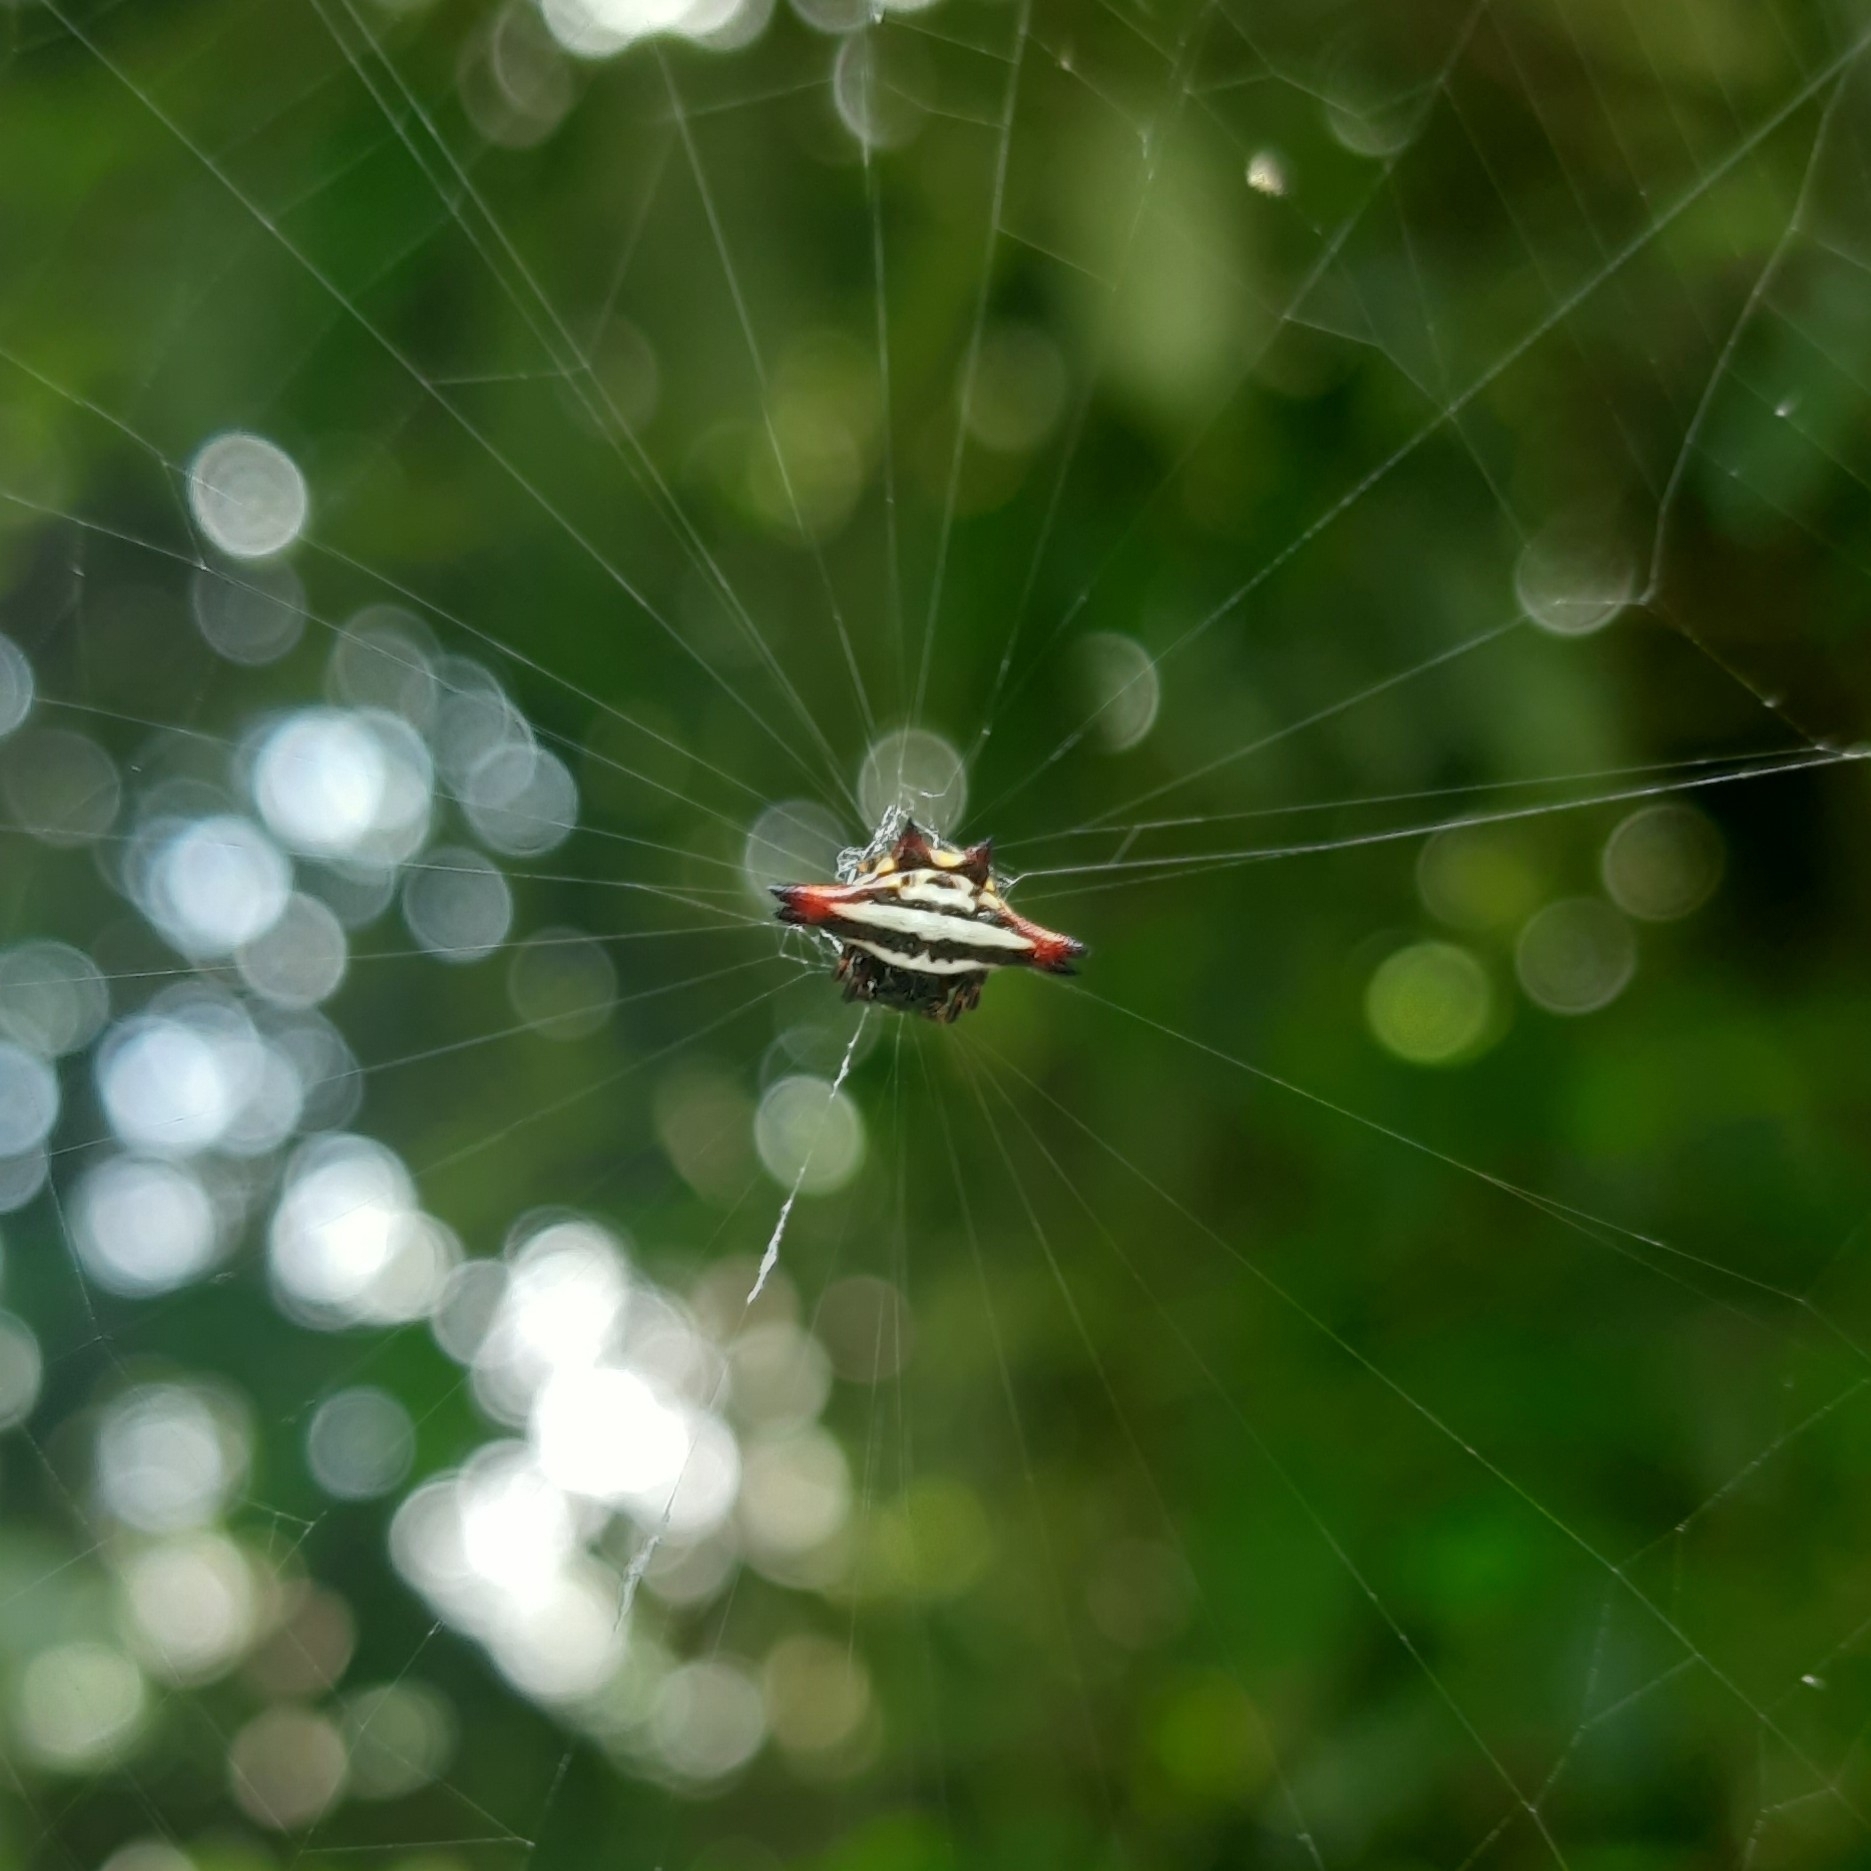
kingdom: Animalia
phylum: Arthropoda
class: Arachnida
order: Araneae
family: Araneidae
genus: Gasteracantha
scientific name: Gasteracantha geminata
